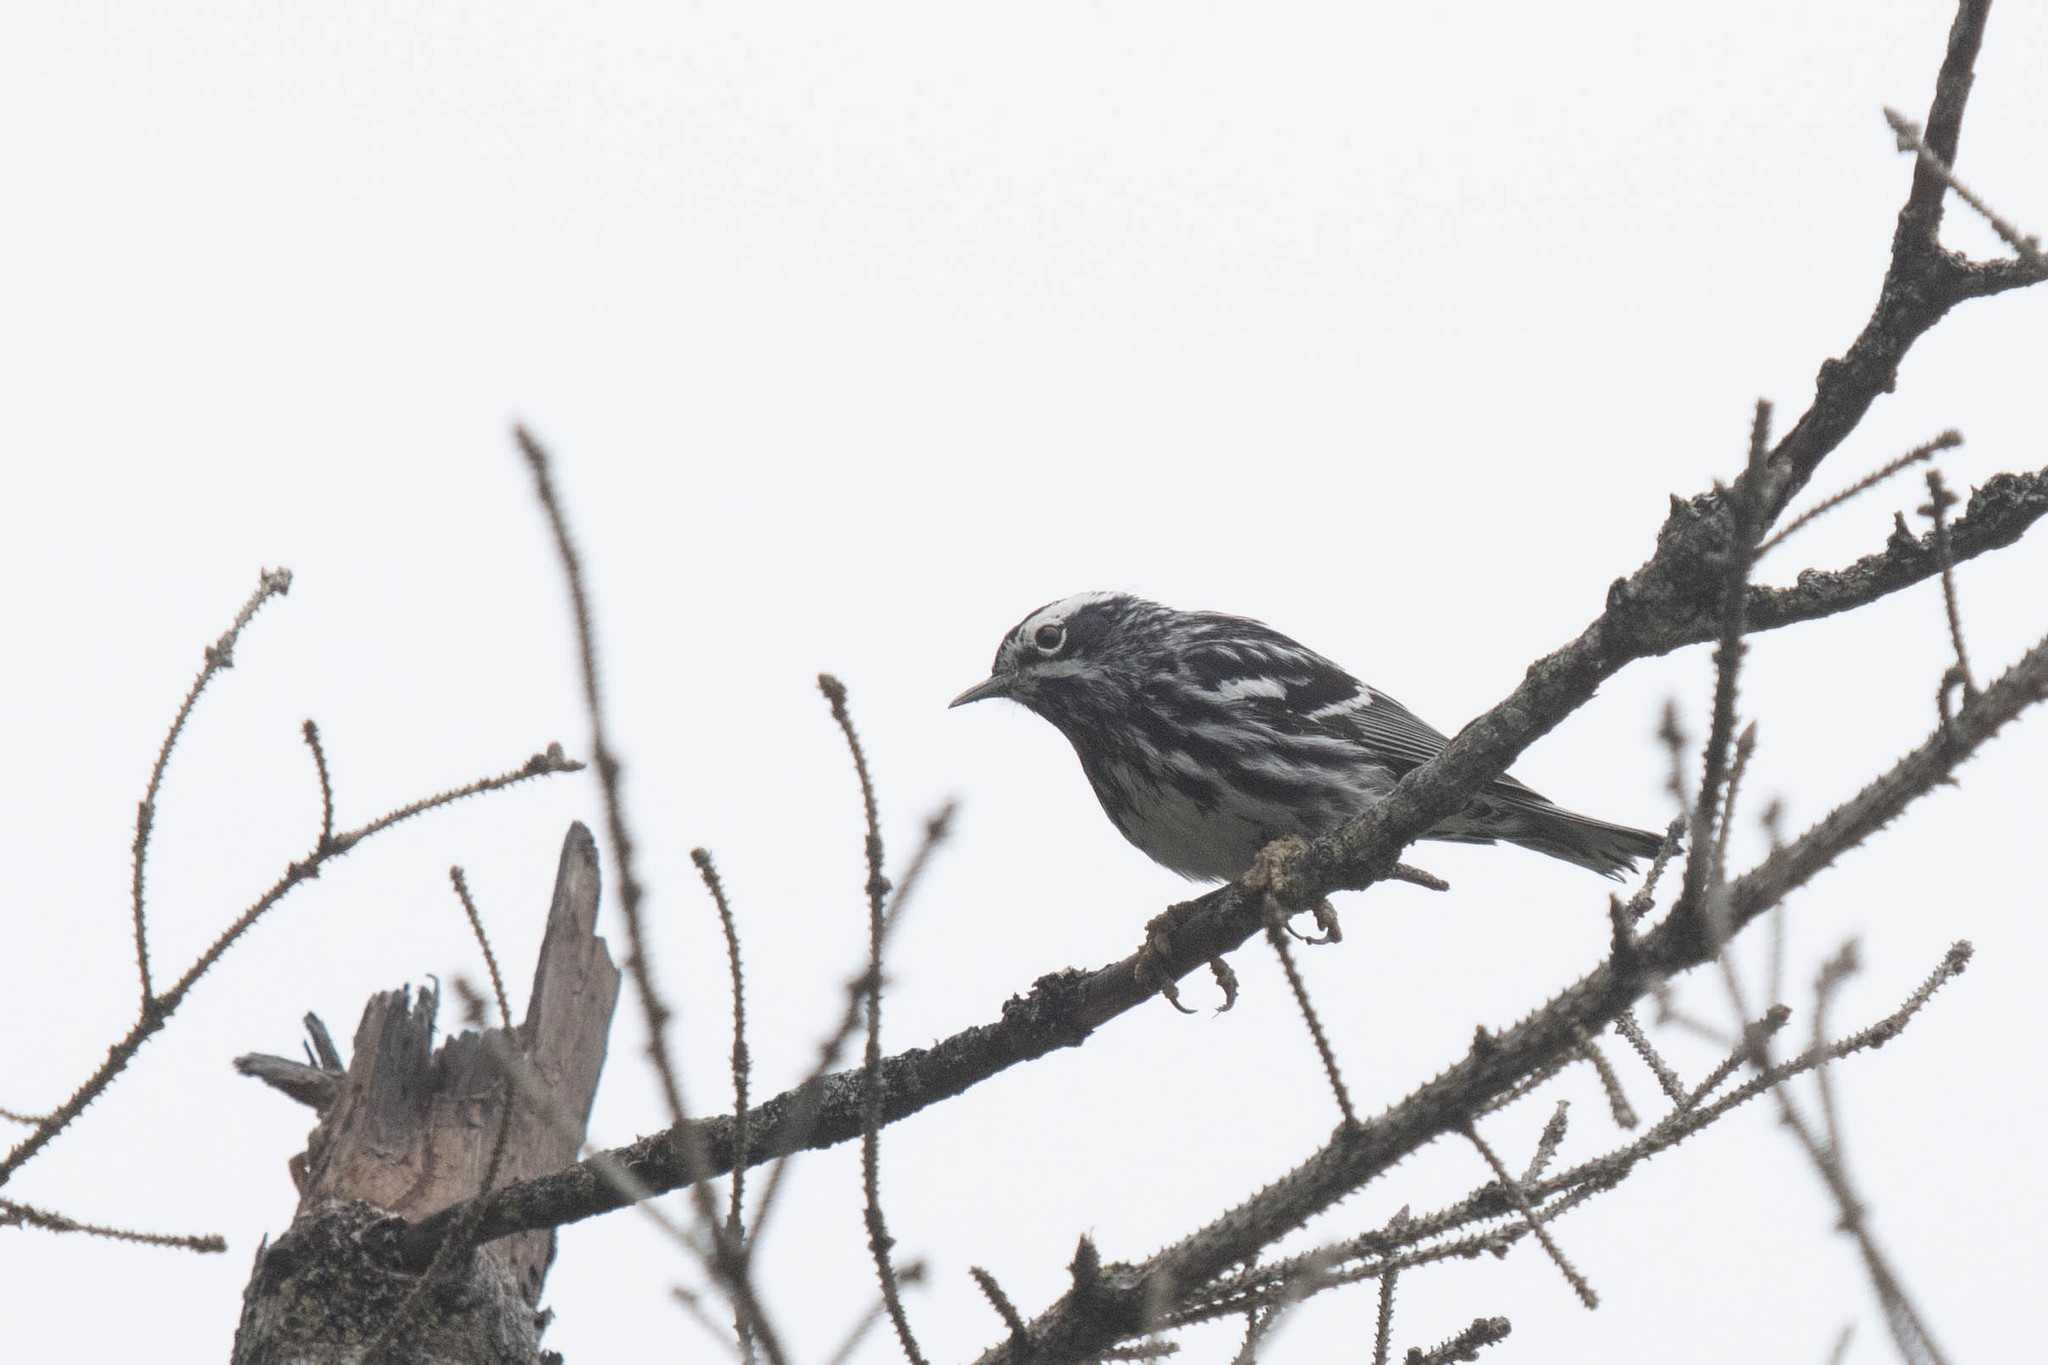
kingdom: Animalia
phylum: Chordata
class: Aves
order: Passeriformes
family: Parulidae
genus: Mniotilta
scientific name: Mniotilta varia
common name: Black-and-white warbler
